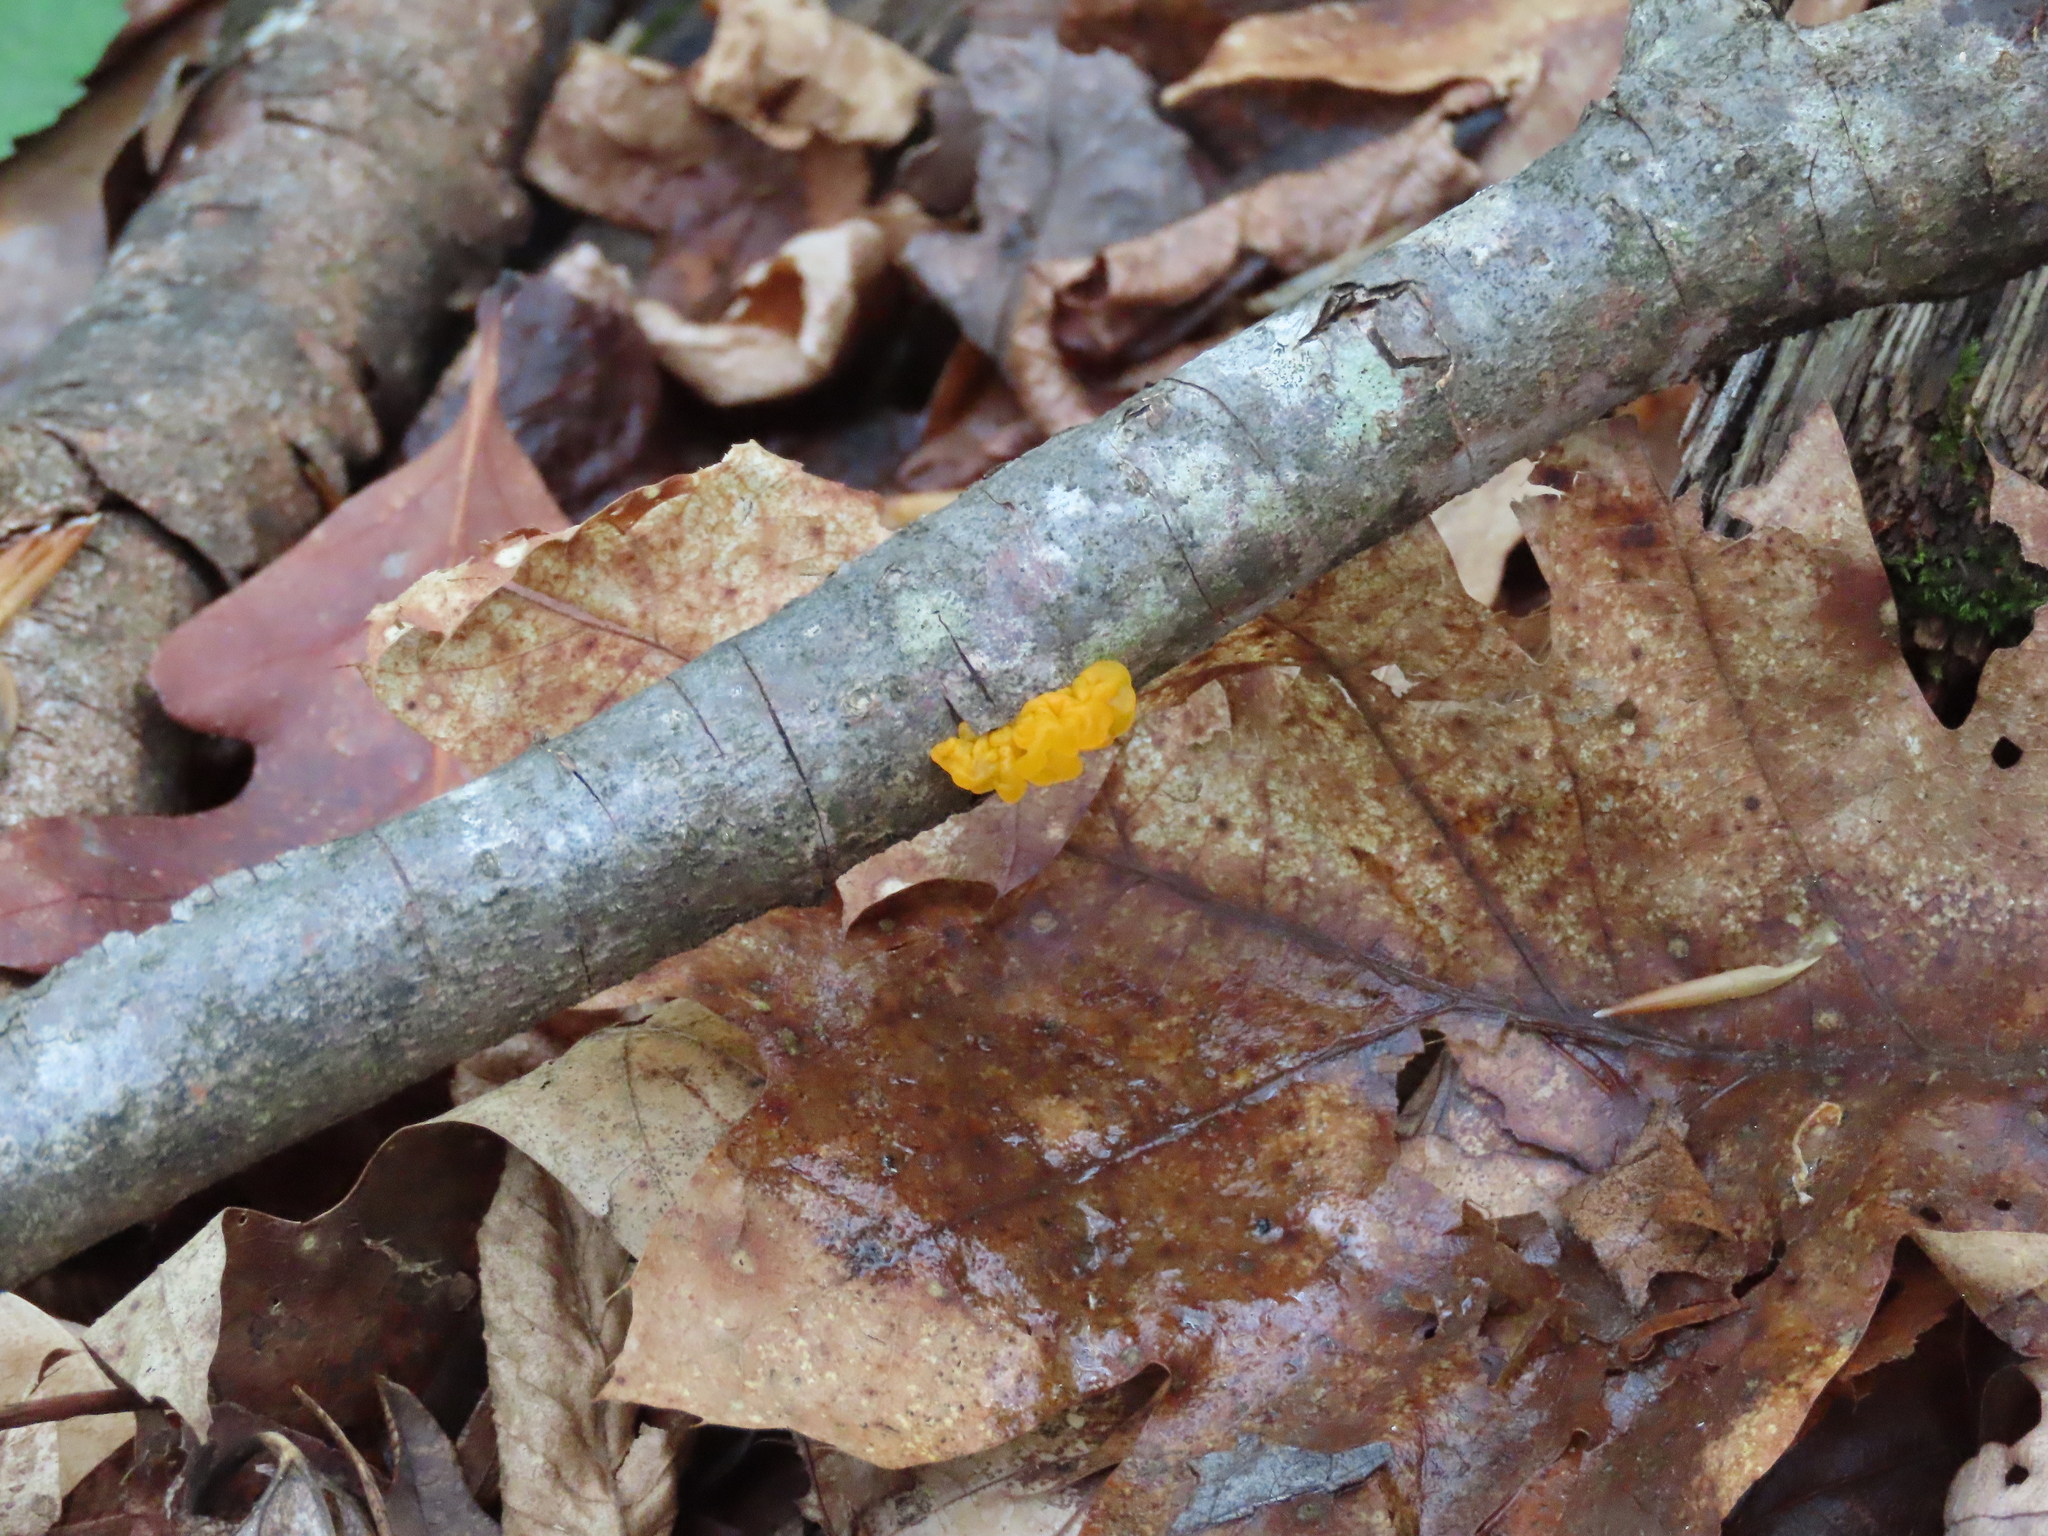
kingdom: Fungi
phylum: Basidiomycota
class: Tremellomycetes
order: Tremellales
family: Tremellaceae
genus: Tremella
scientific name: Tremella mesenterica
